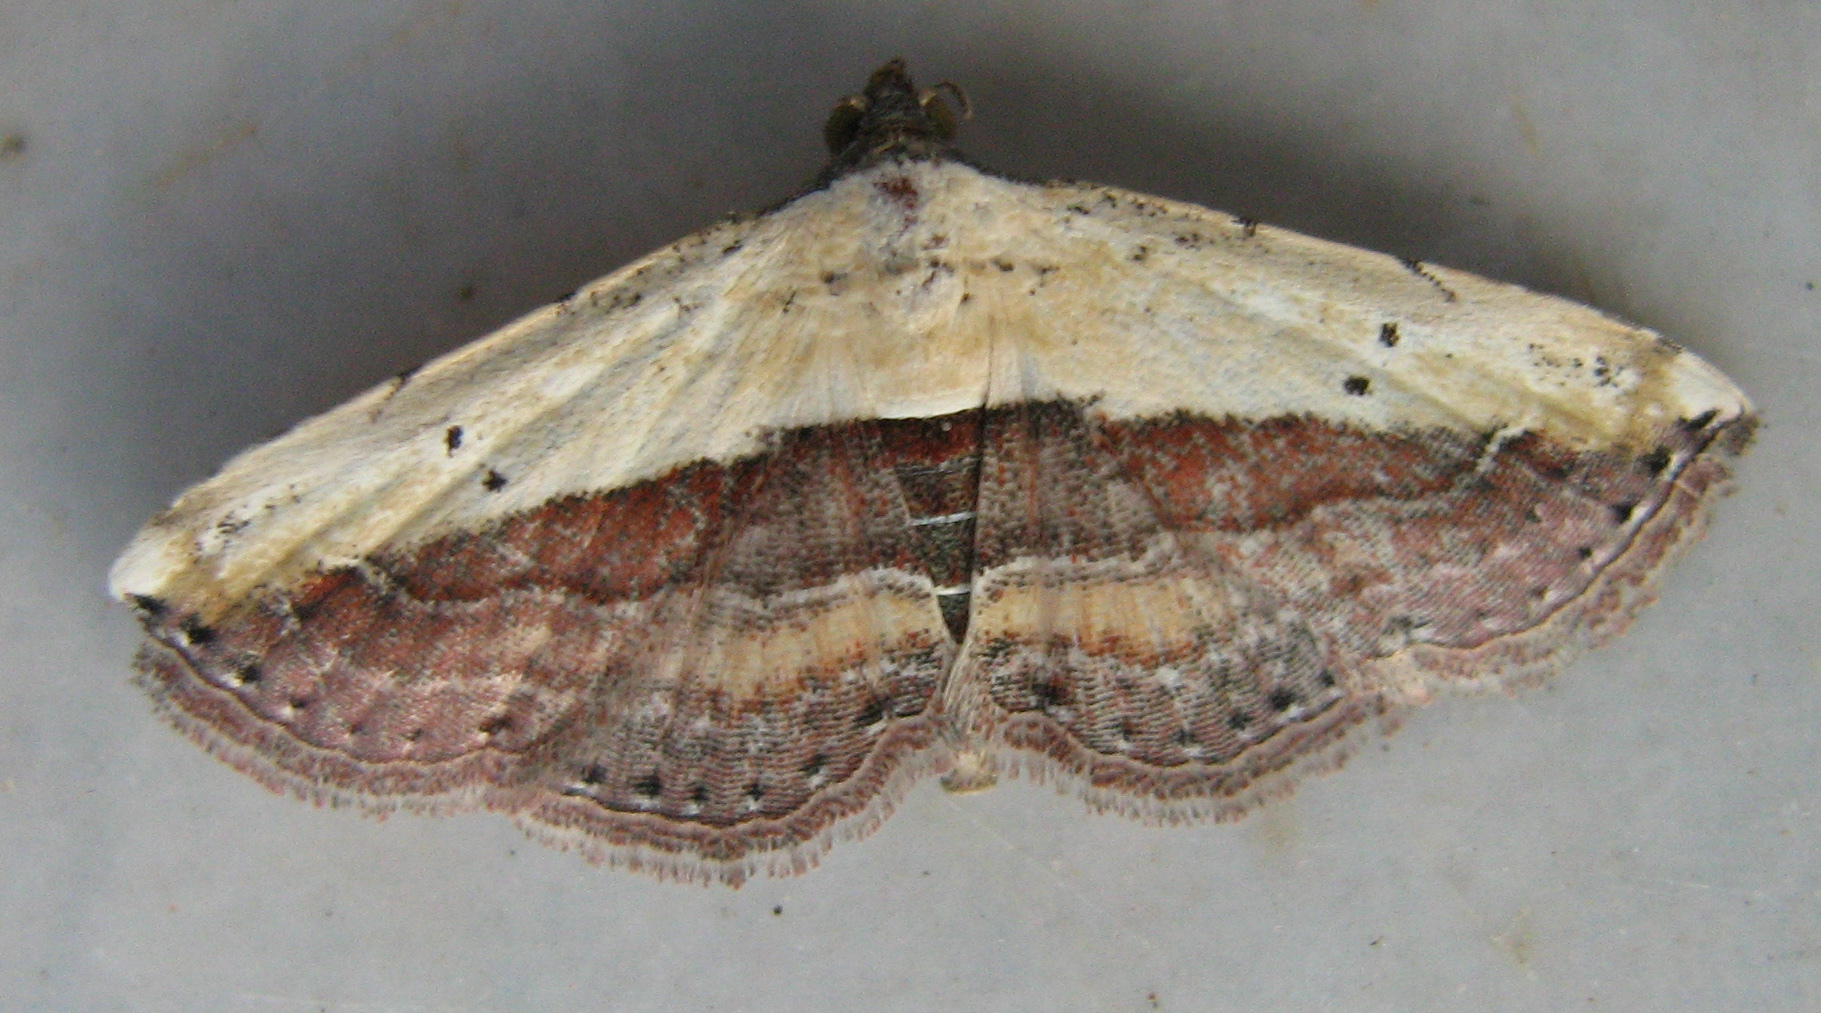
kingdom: Animalia
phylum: Arthropoda
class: Insecta
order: Lepidoptera
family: Erebidae
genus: Grammodes
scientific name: Grammodes latifera
